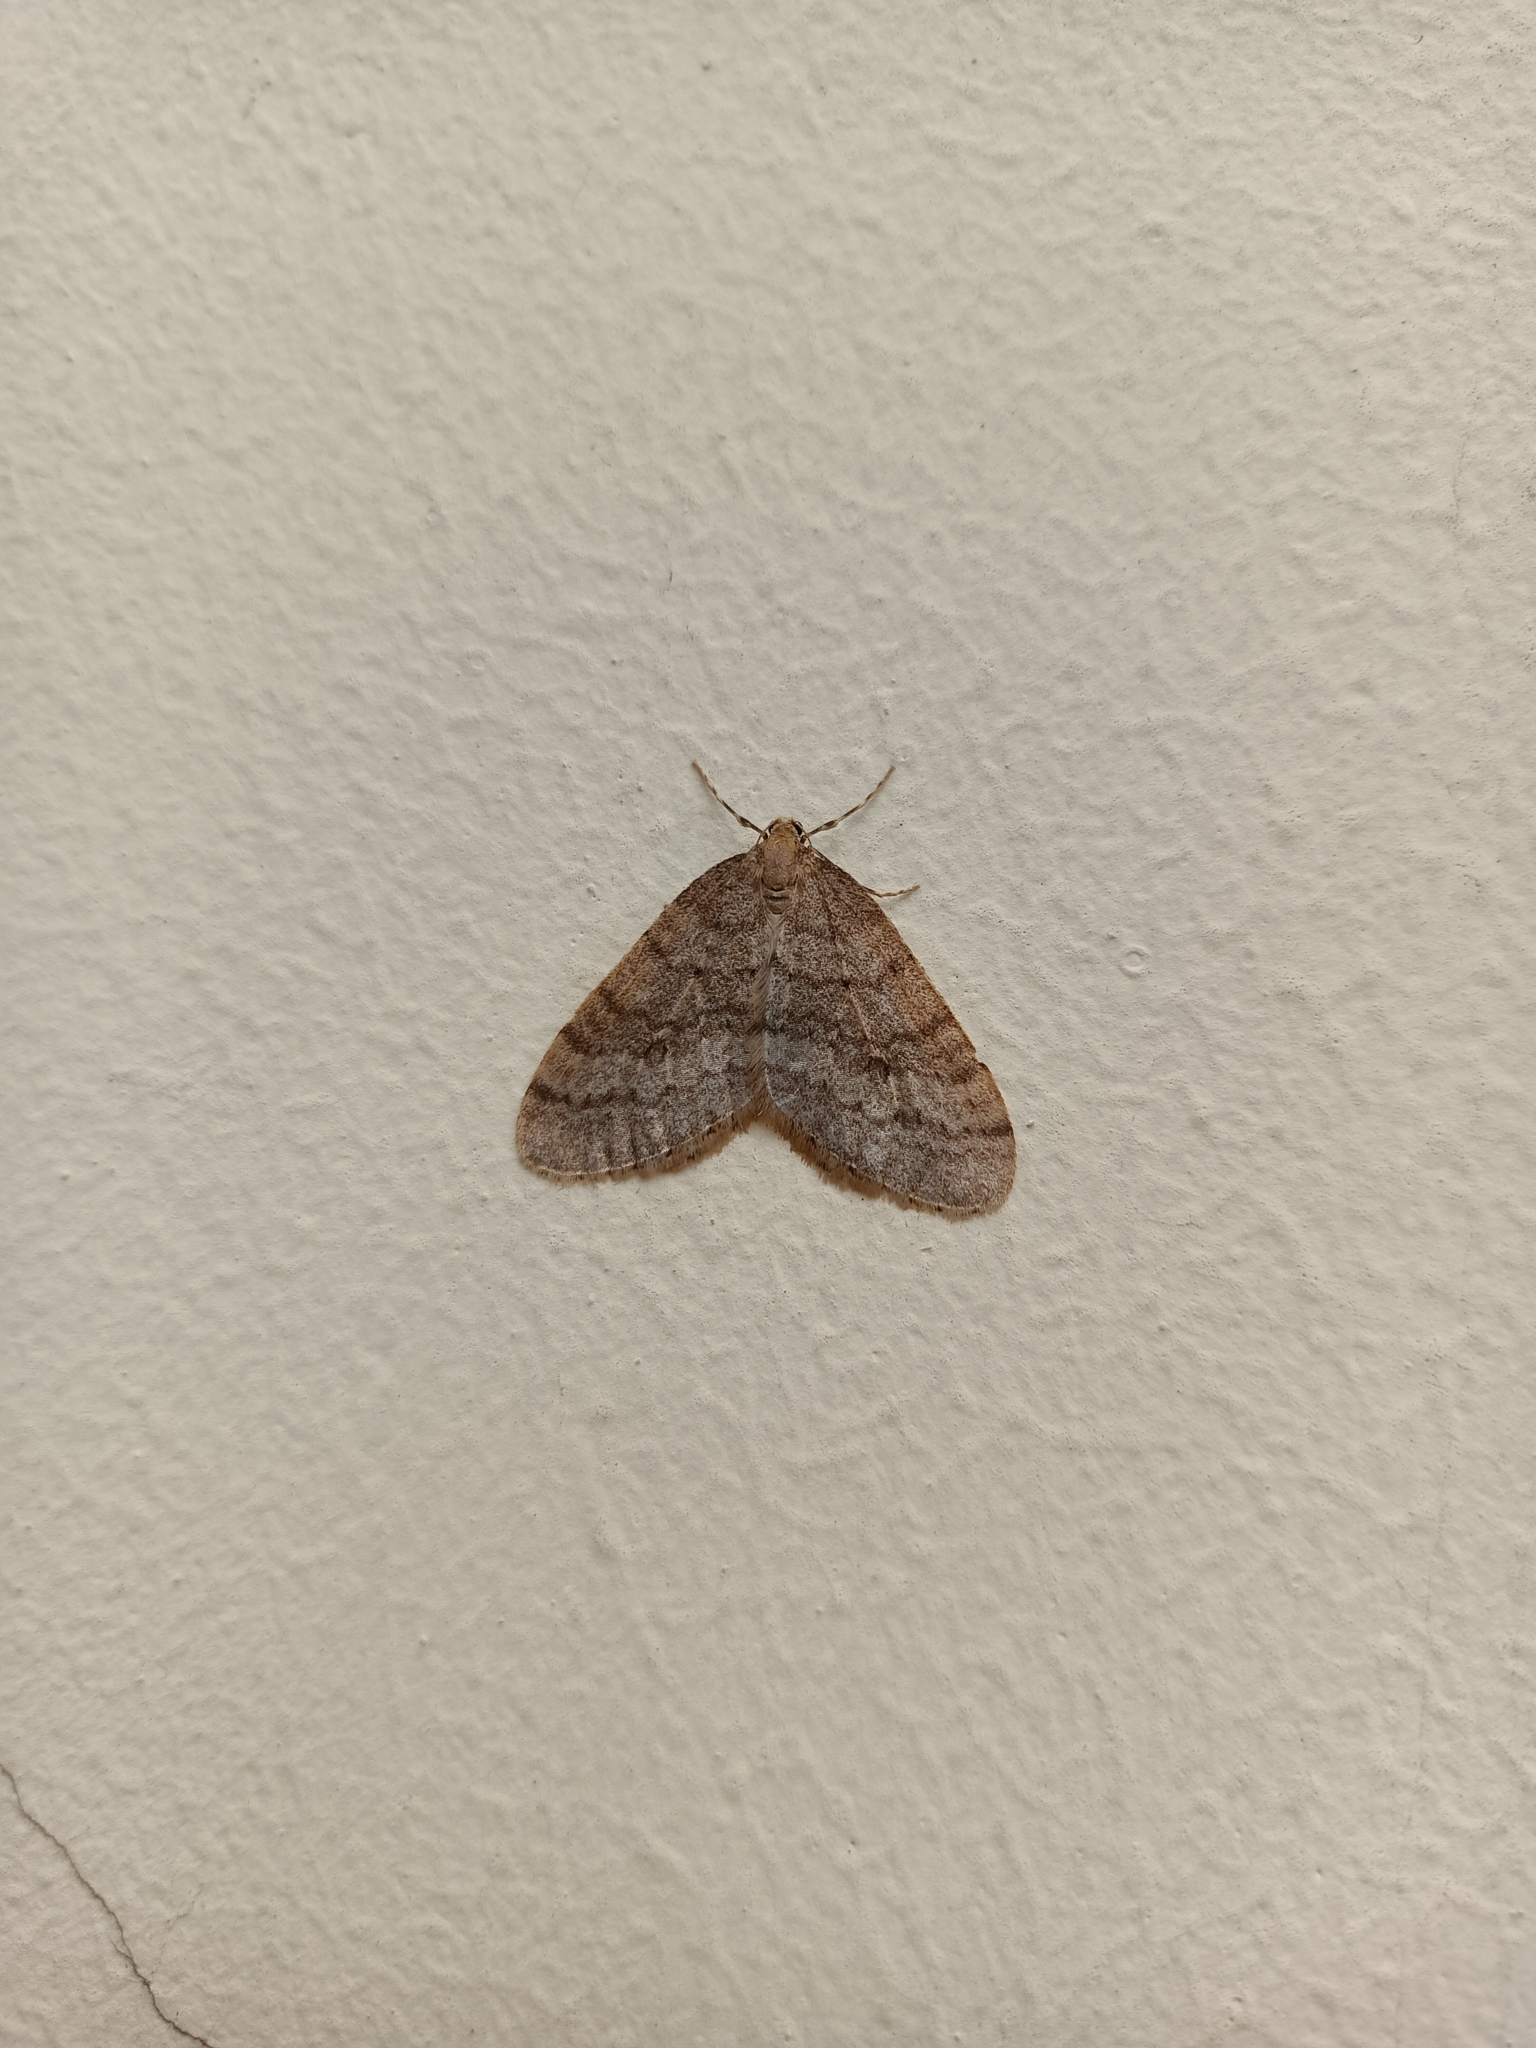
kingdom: Animalia
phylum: Arthropoda
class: Insecta
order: Lepidoptera
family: Geometridae
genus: Operophtera
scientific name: Operophtera brumata
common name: Winter moth
